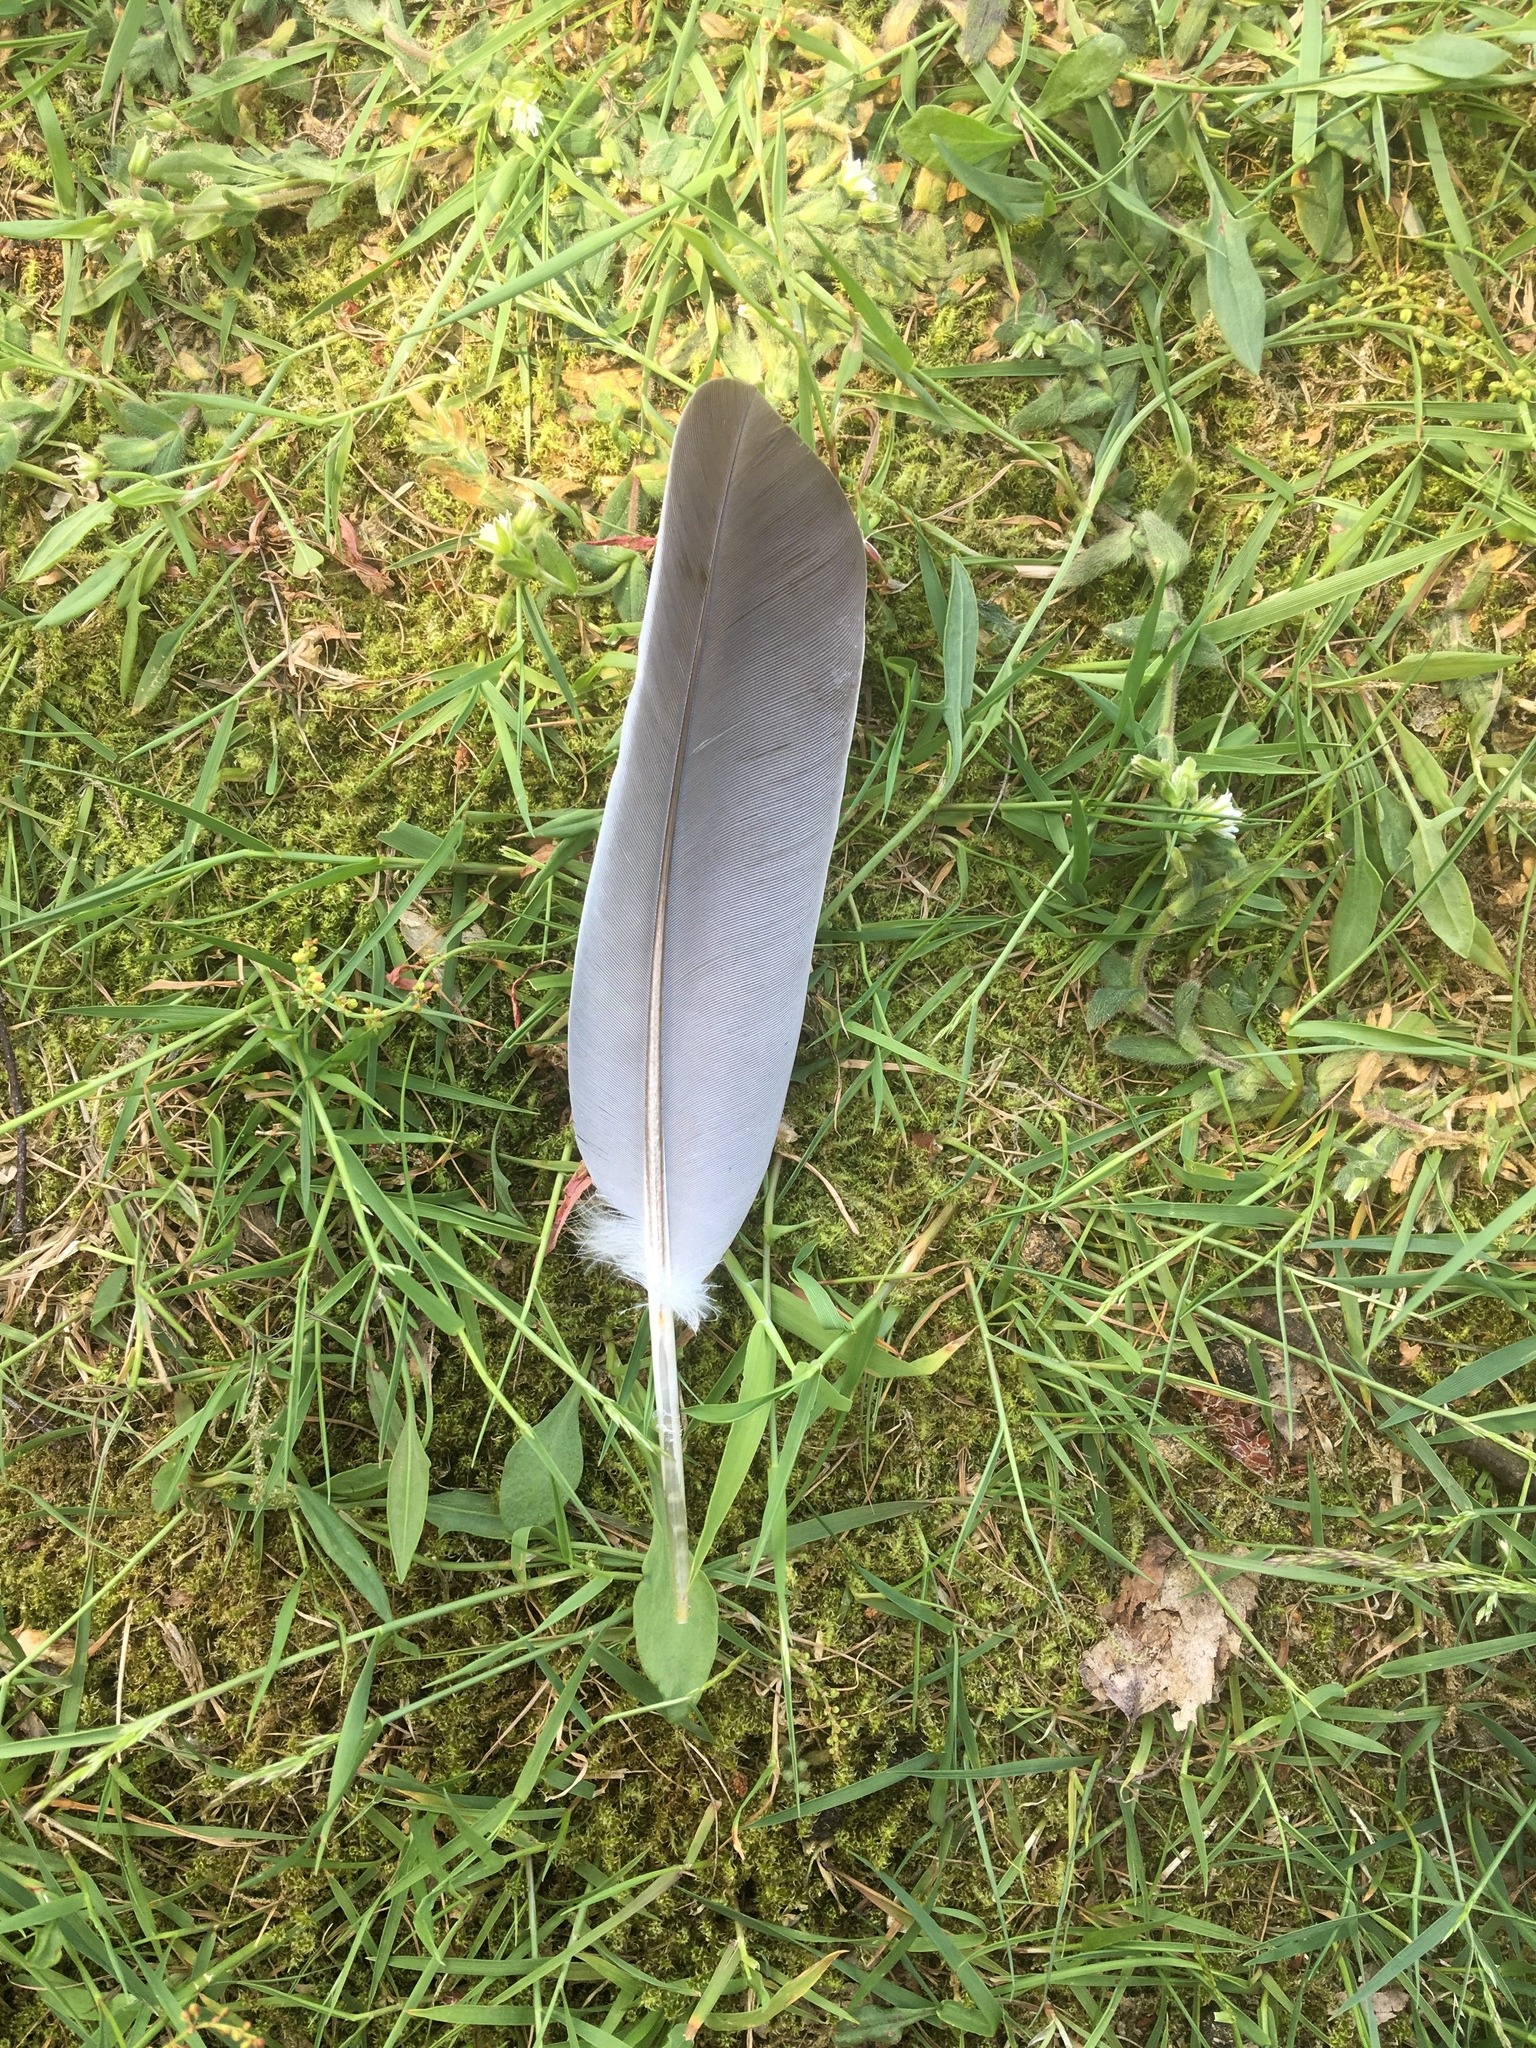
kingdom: Animalia
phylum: Chordata
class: Aves
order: Columbiformes
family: Columbidae
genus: Columba
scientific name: Columba palumbus
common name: Common wood pigeon
